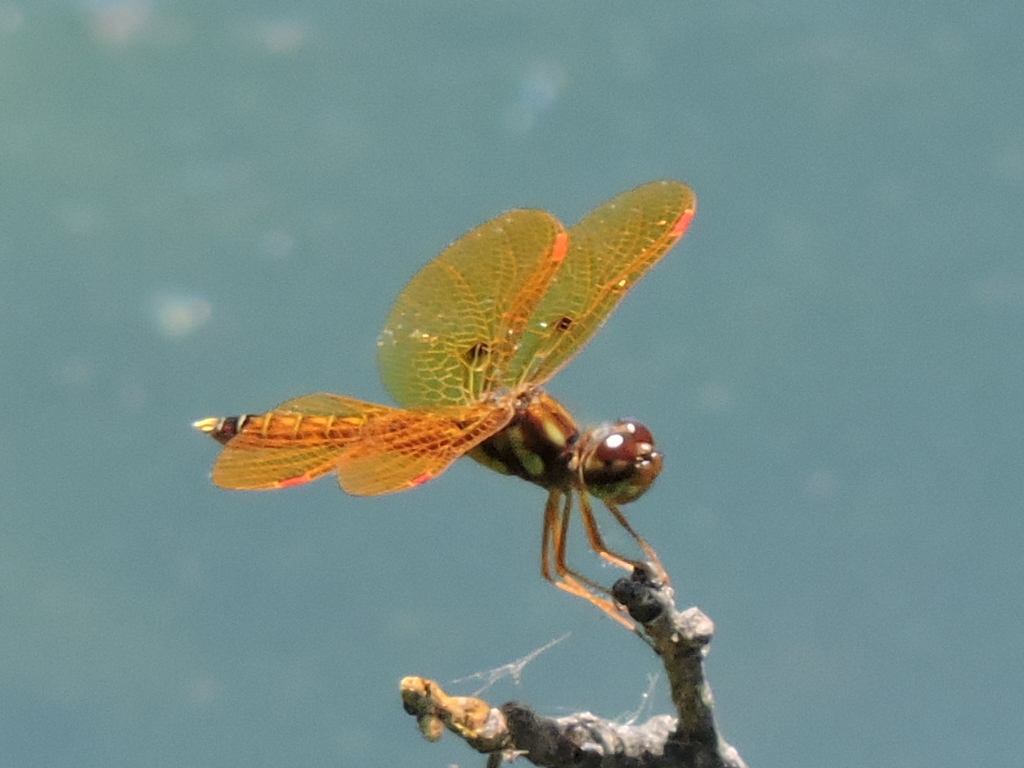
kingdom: Animalia
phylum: Arthropoda
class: Insecta
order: Odonata
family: Libellulidae
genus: Perithemis
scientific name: Perithemis tenera
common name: Eastern amberwing
